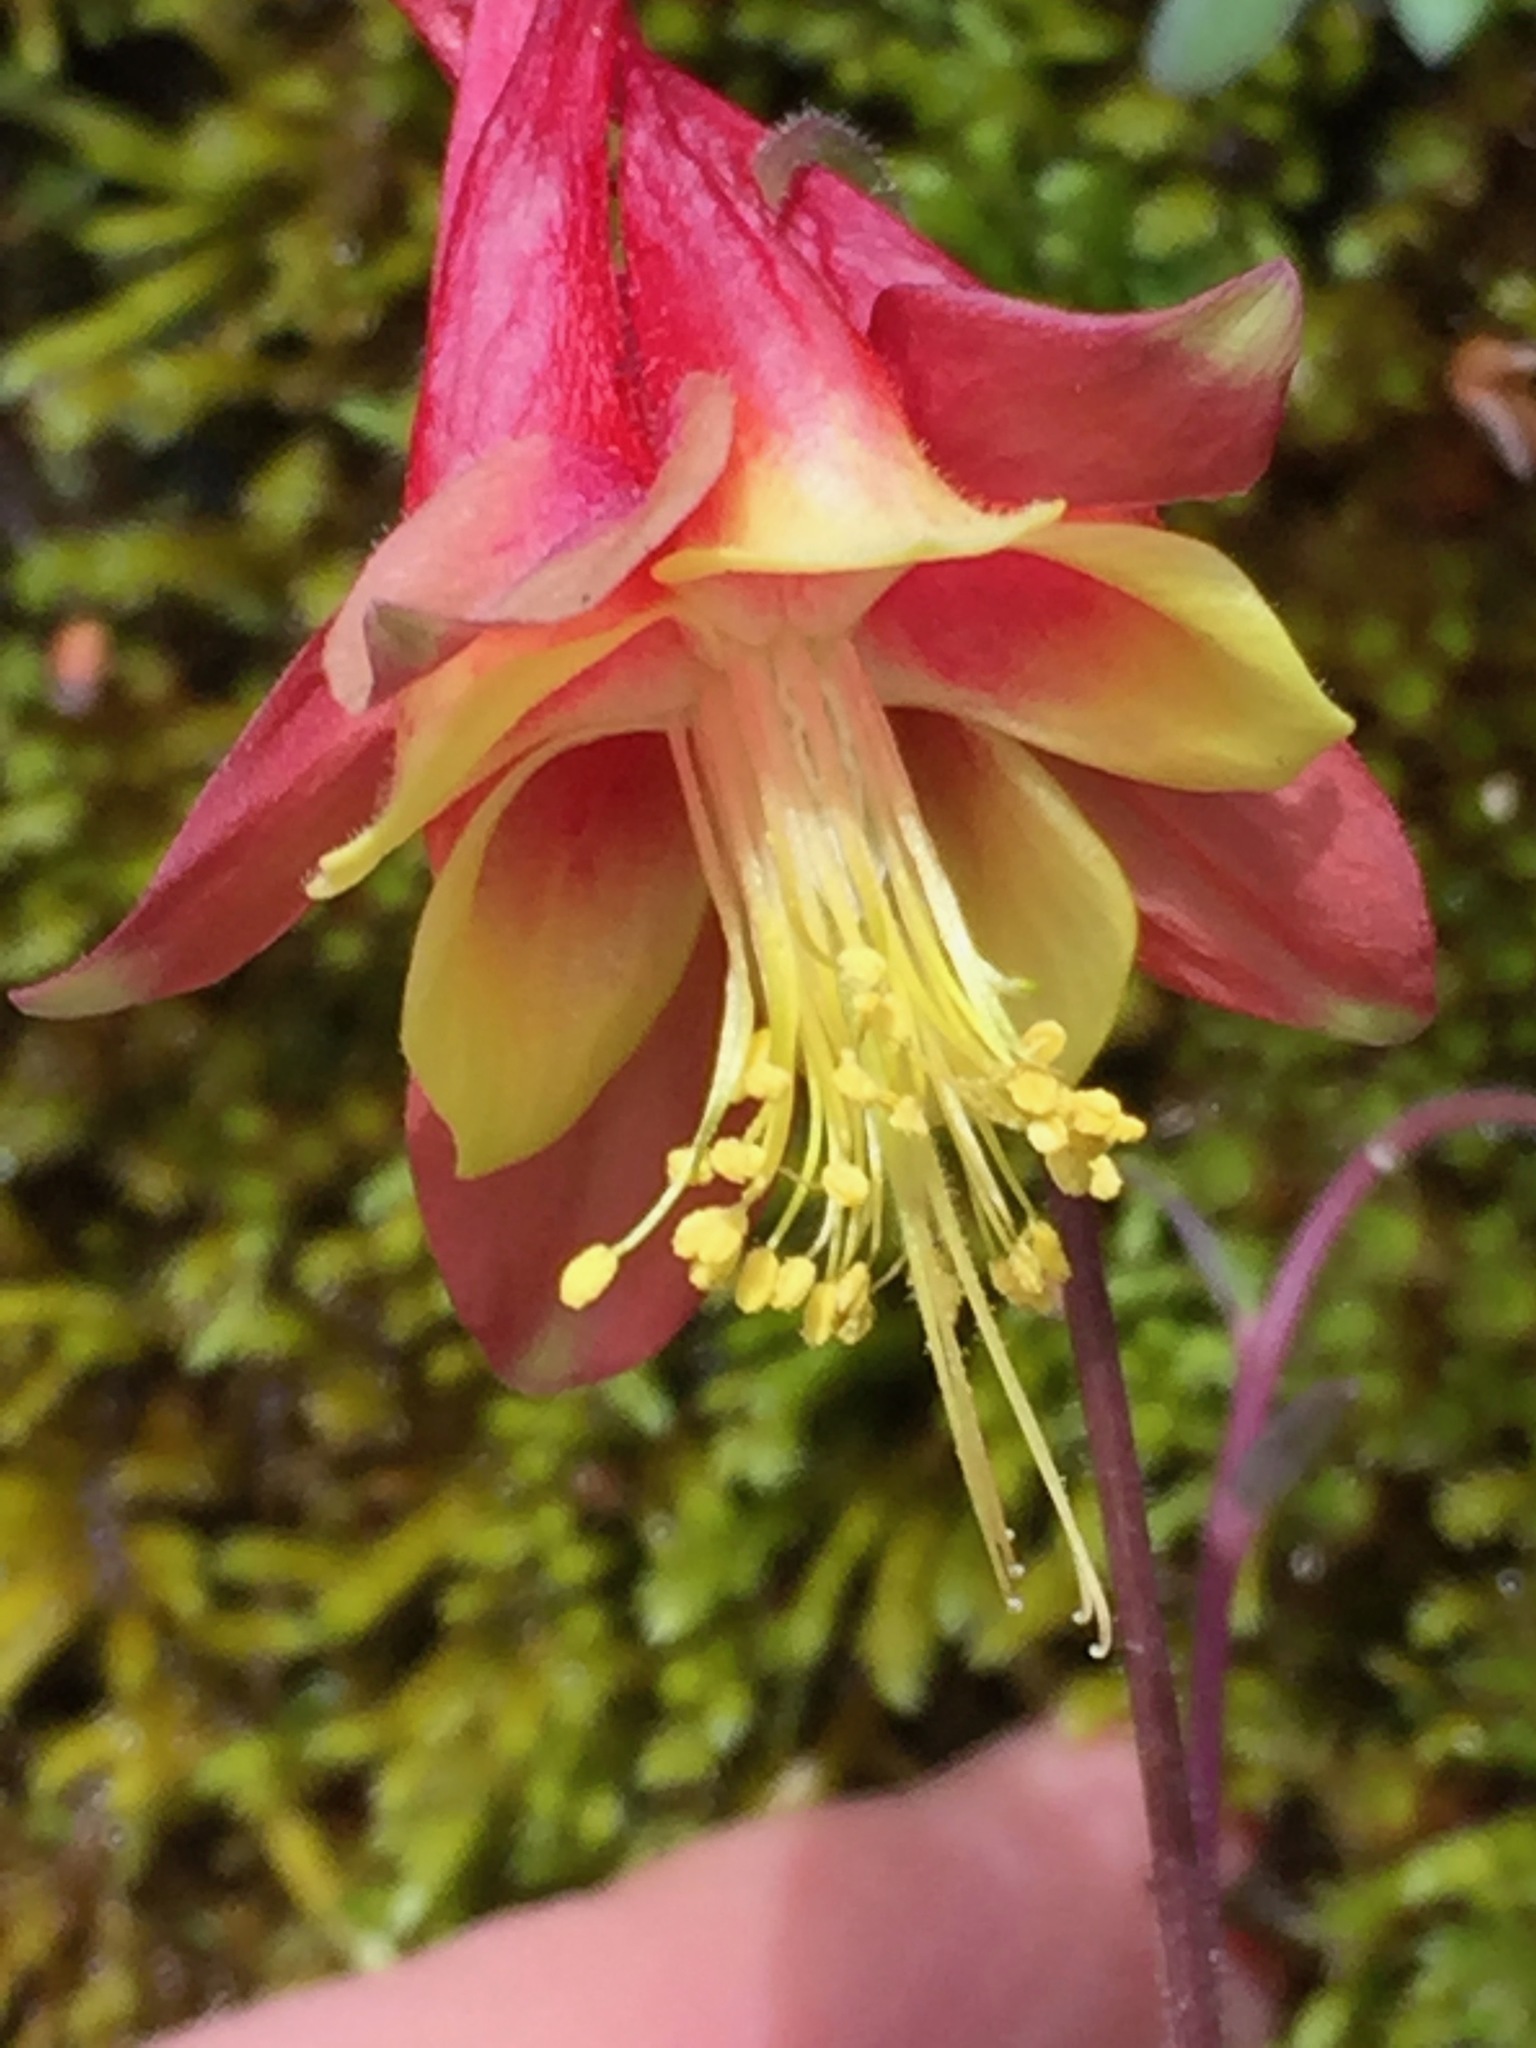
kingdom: Plantae
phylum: Tracheophyta
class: Magnoliopsida
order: Ranunculales
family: Ranunculaceae
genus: Aquilegia
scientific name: Aquilegia canadensis
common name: American columbine
